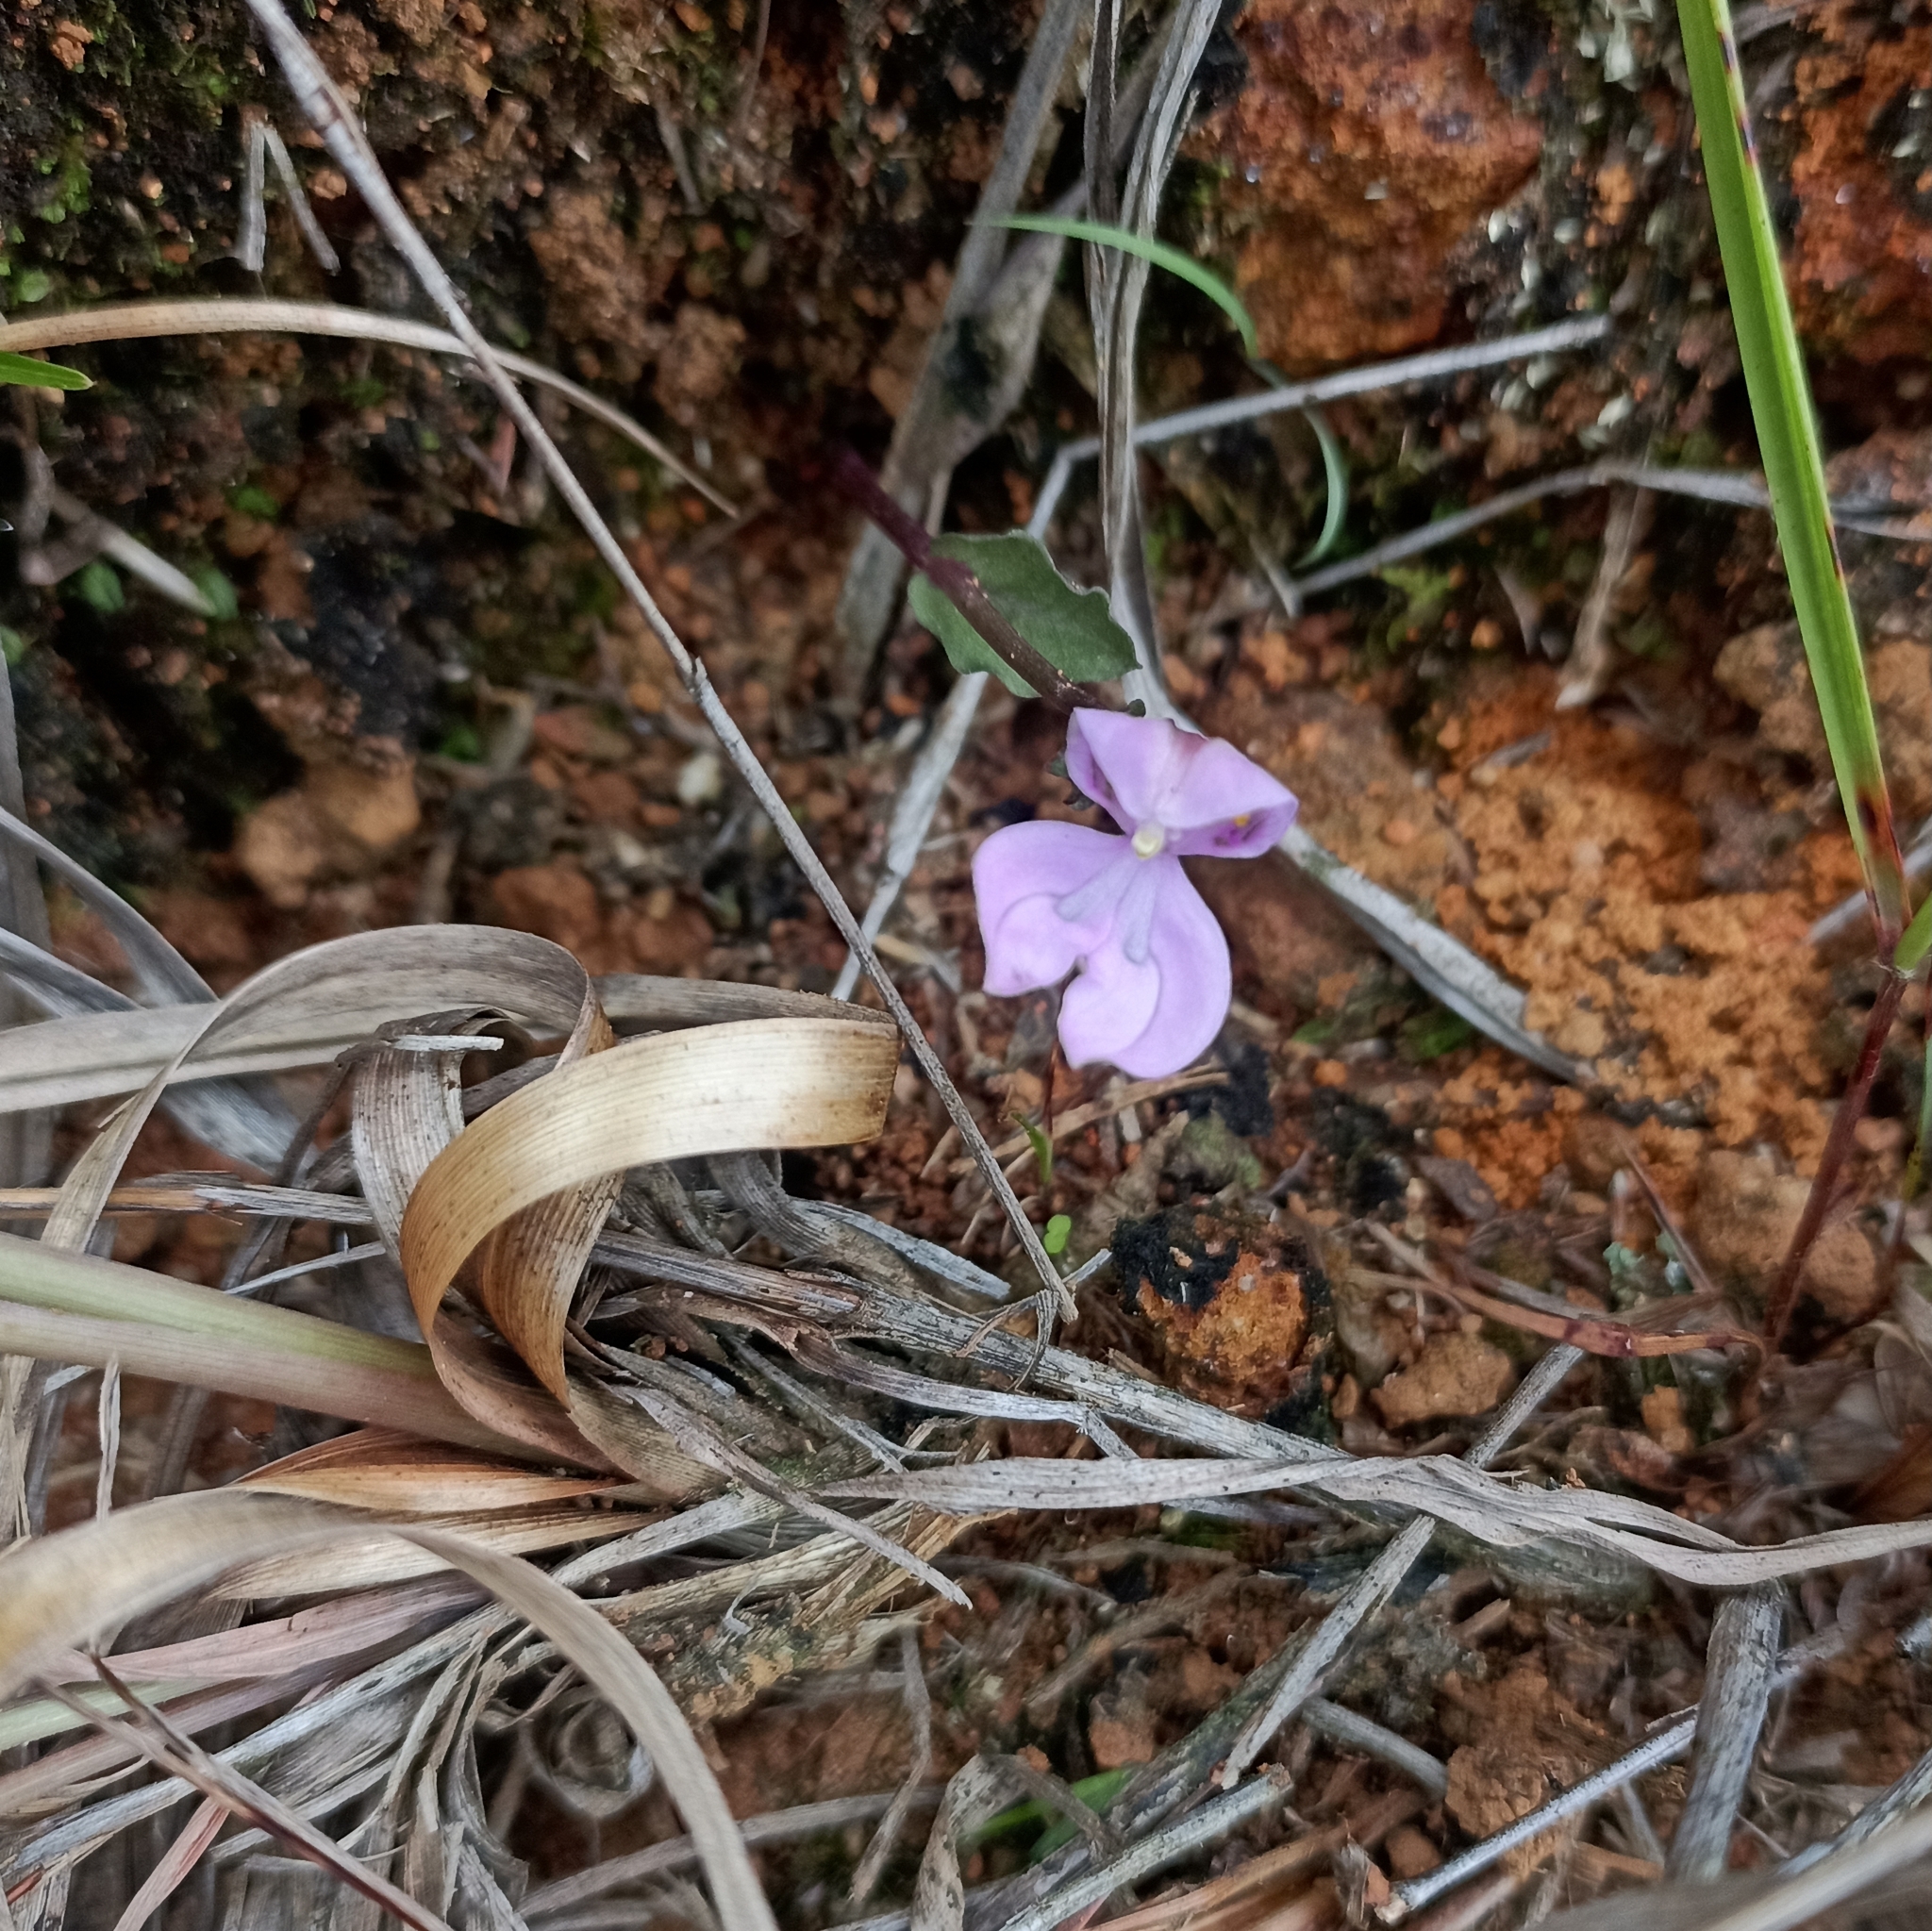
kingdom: Plantae
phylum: Tracheophyta
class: Liliopsida
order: Asparagales
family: Orchidaceae
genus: Disperis
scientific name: Disperis neilgherrensis
